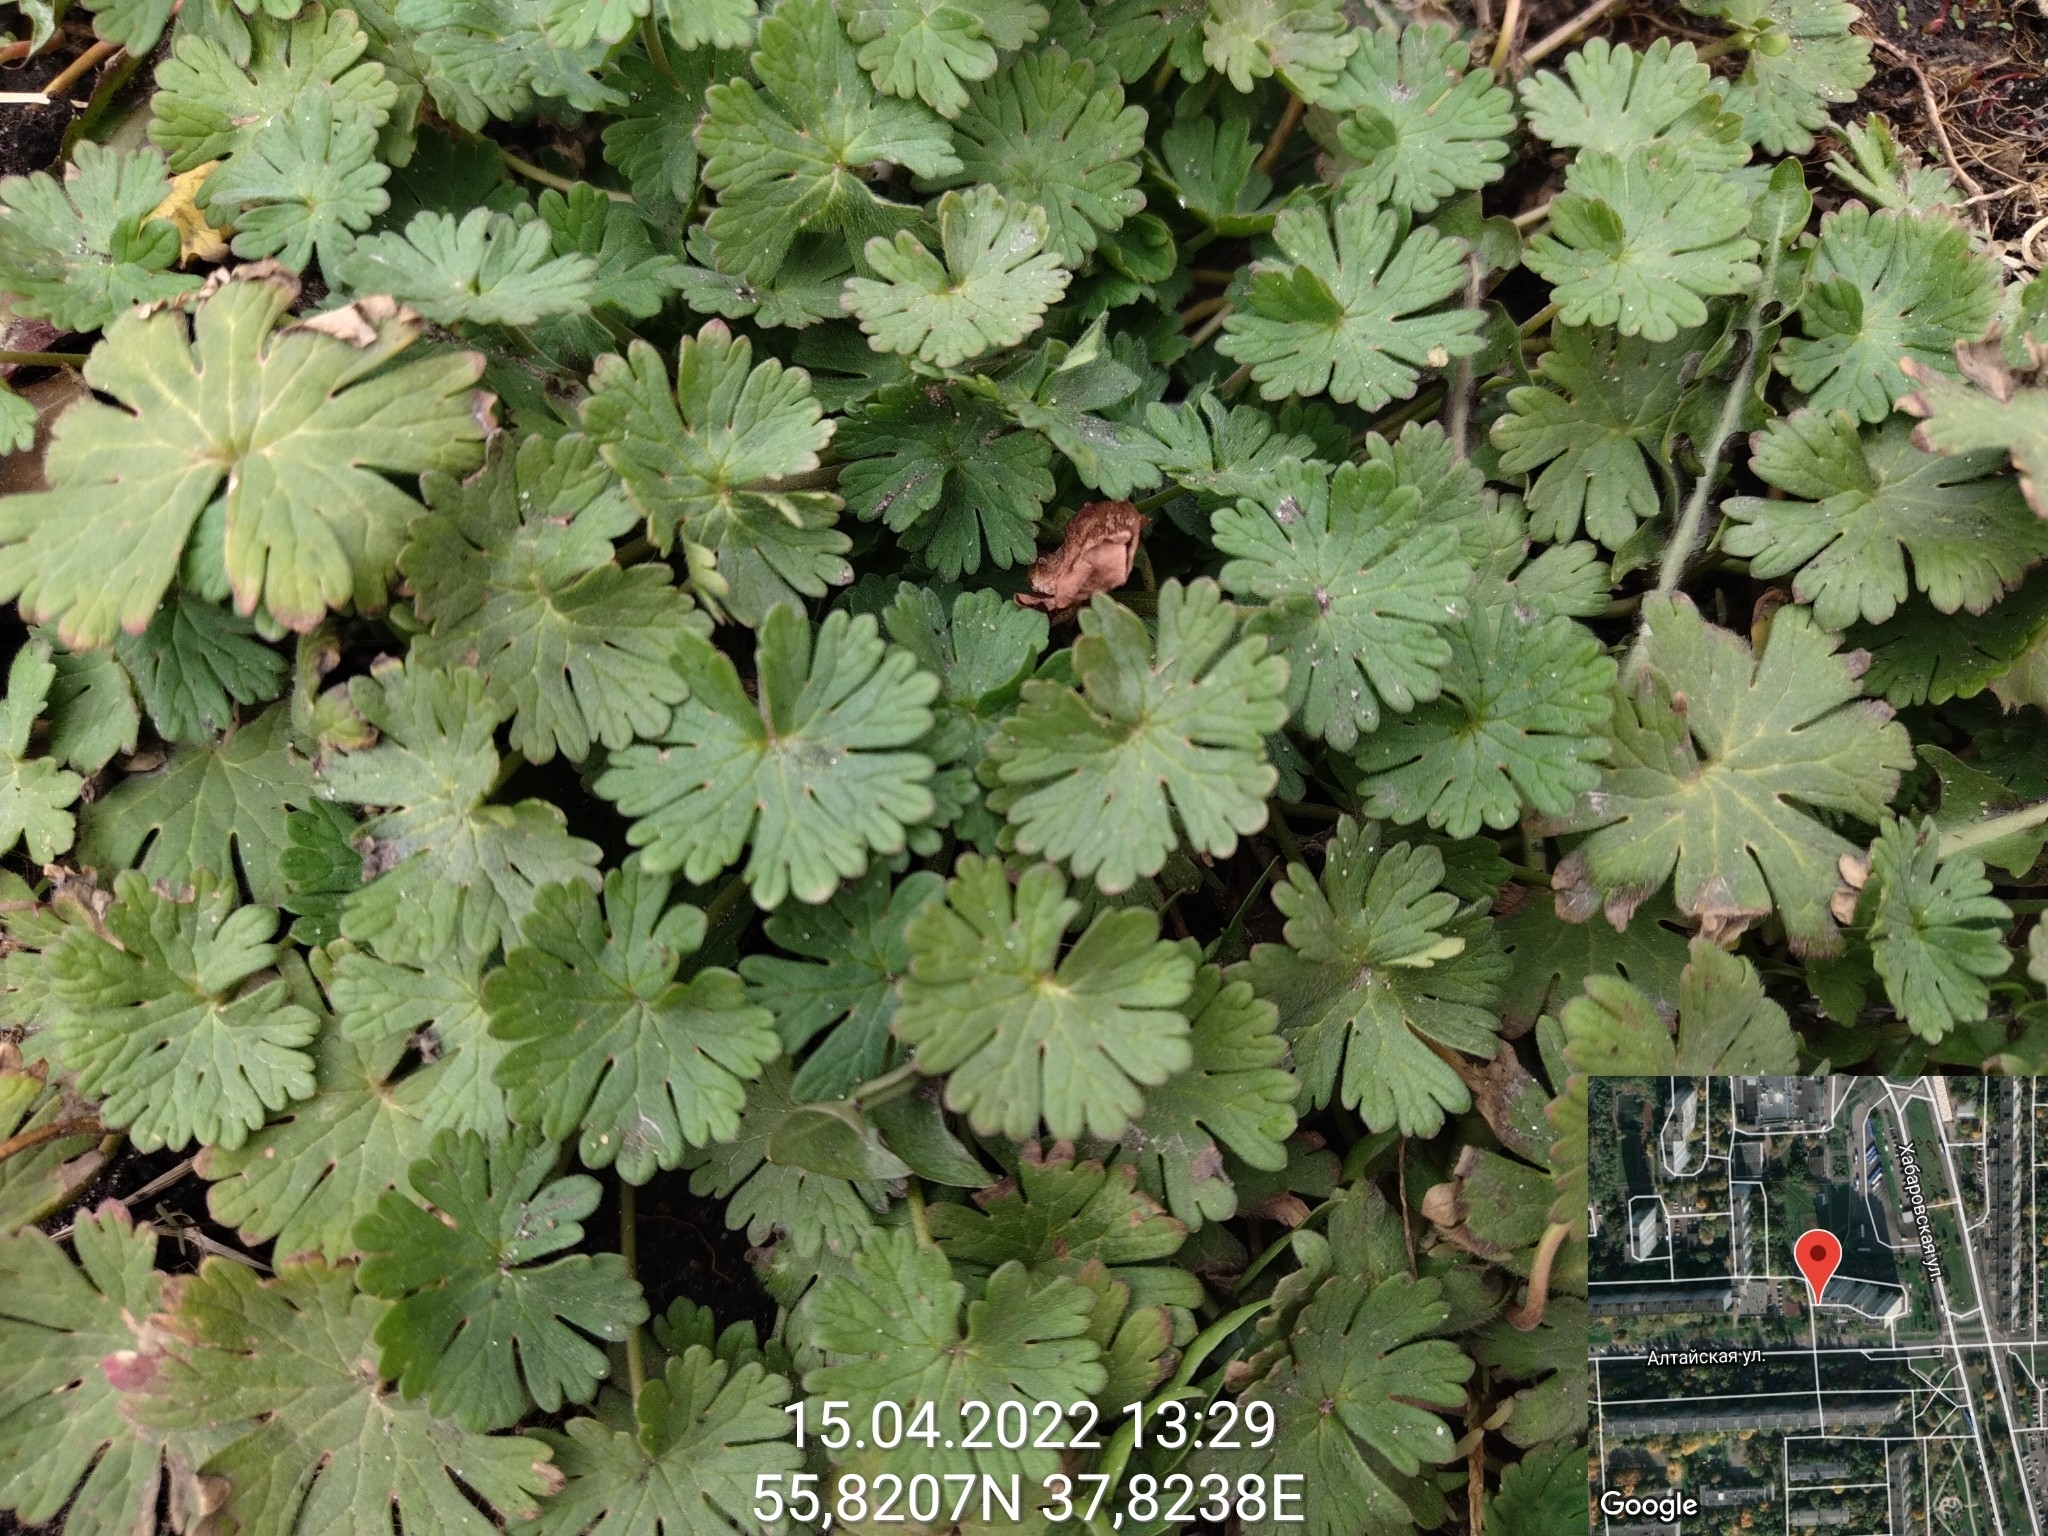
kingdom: Plantae
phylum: Tracheophyta
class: Magnoliopsida
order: Geraniales
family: Geraniaceae
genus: Geranium
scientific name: Geranium pusillum
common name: Small geranium
